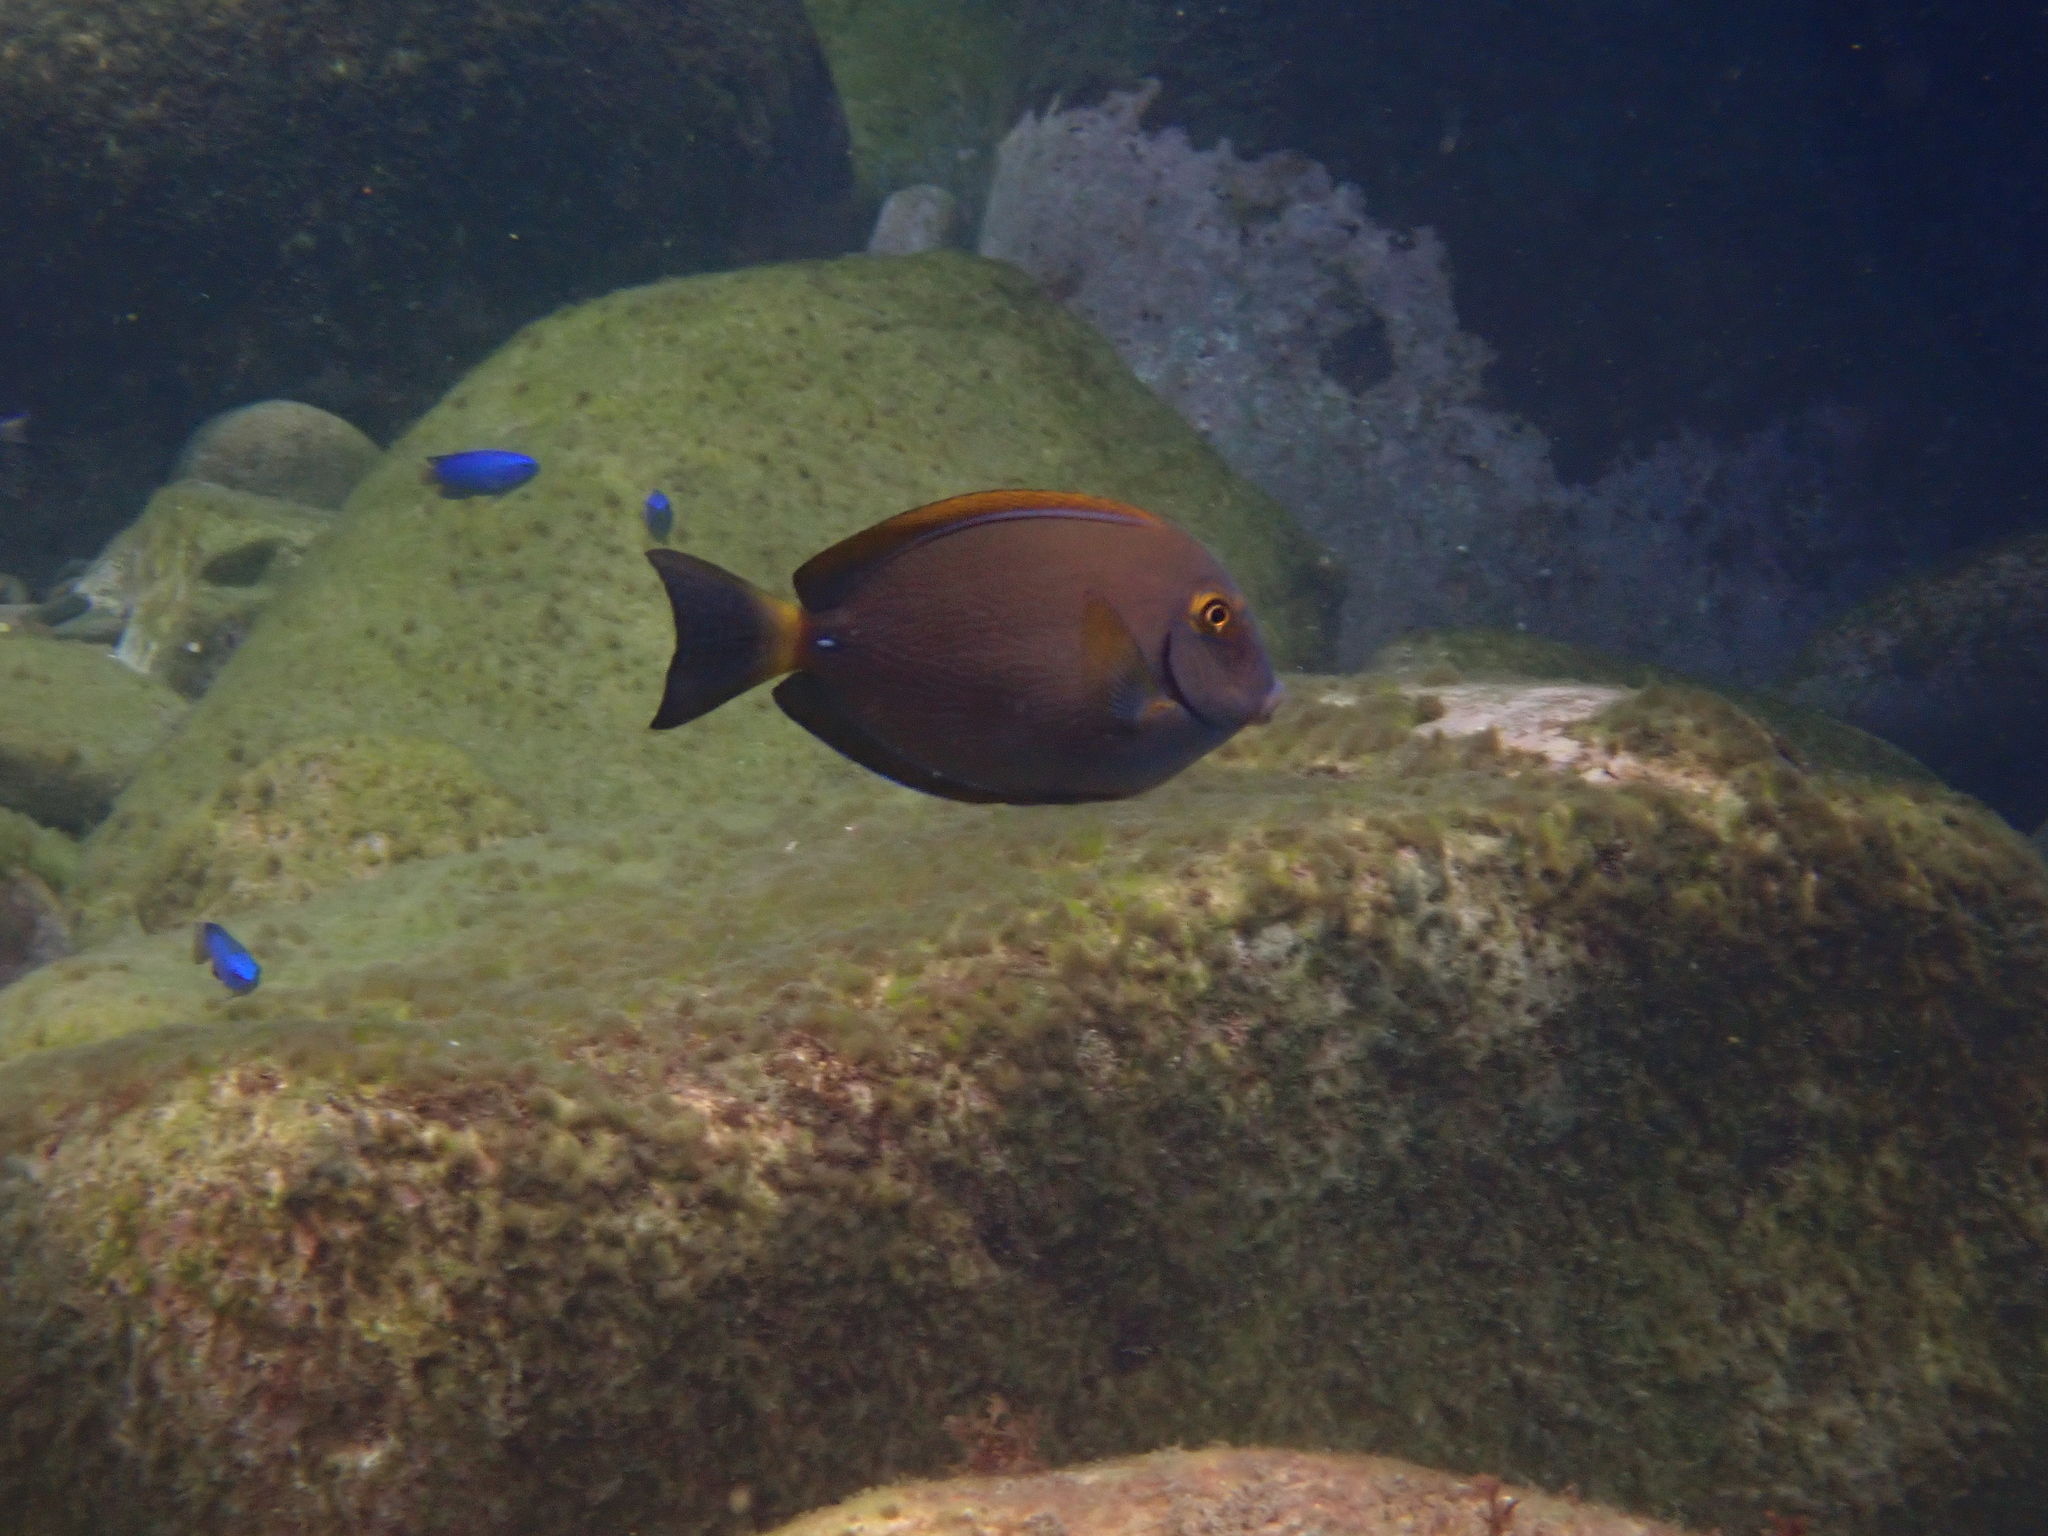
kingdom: Animalia
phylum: Chordata
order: Perciformes
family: Acanthuridae
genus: Acanthurus
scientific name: Acanthurus dussumieri
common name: Dussumier's surgeonfish
